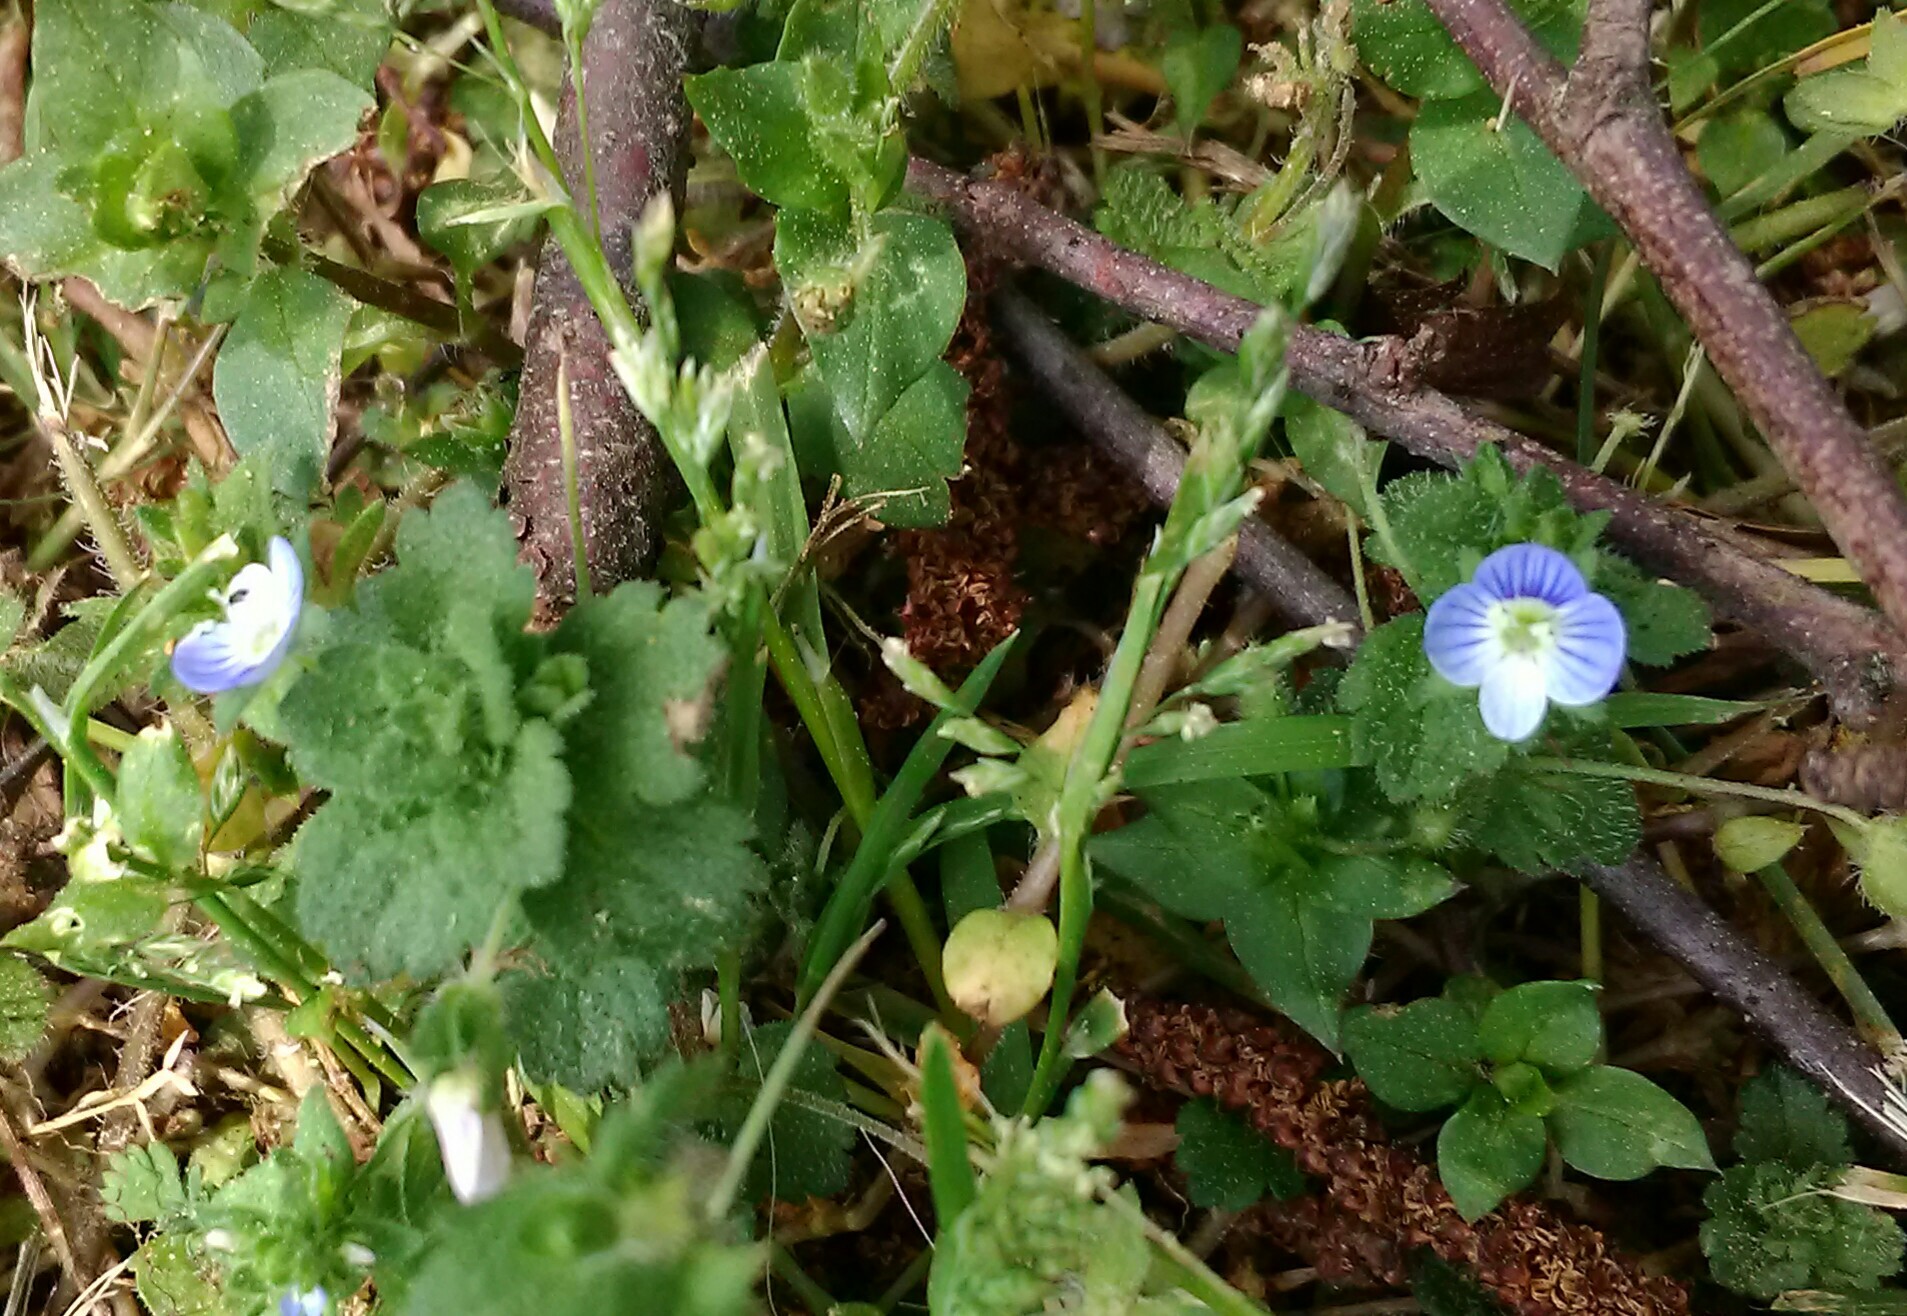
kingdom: Plantae
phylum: Tracheophyta
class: Magnoliopsida
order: Lamiales
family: Plantaginaceae
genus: Veronica
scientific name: Veronica persica
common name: Common field-speedwell
